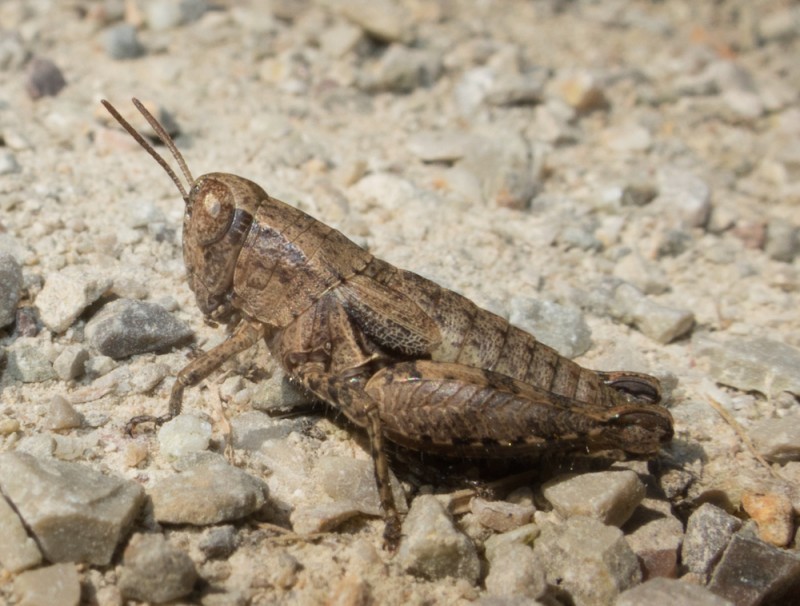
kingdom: Animalia
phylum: Arthropoda
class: Insecta
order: Orthoptera
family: Acrididae
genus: Pezotettix
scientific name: Pezotettix giornae
